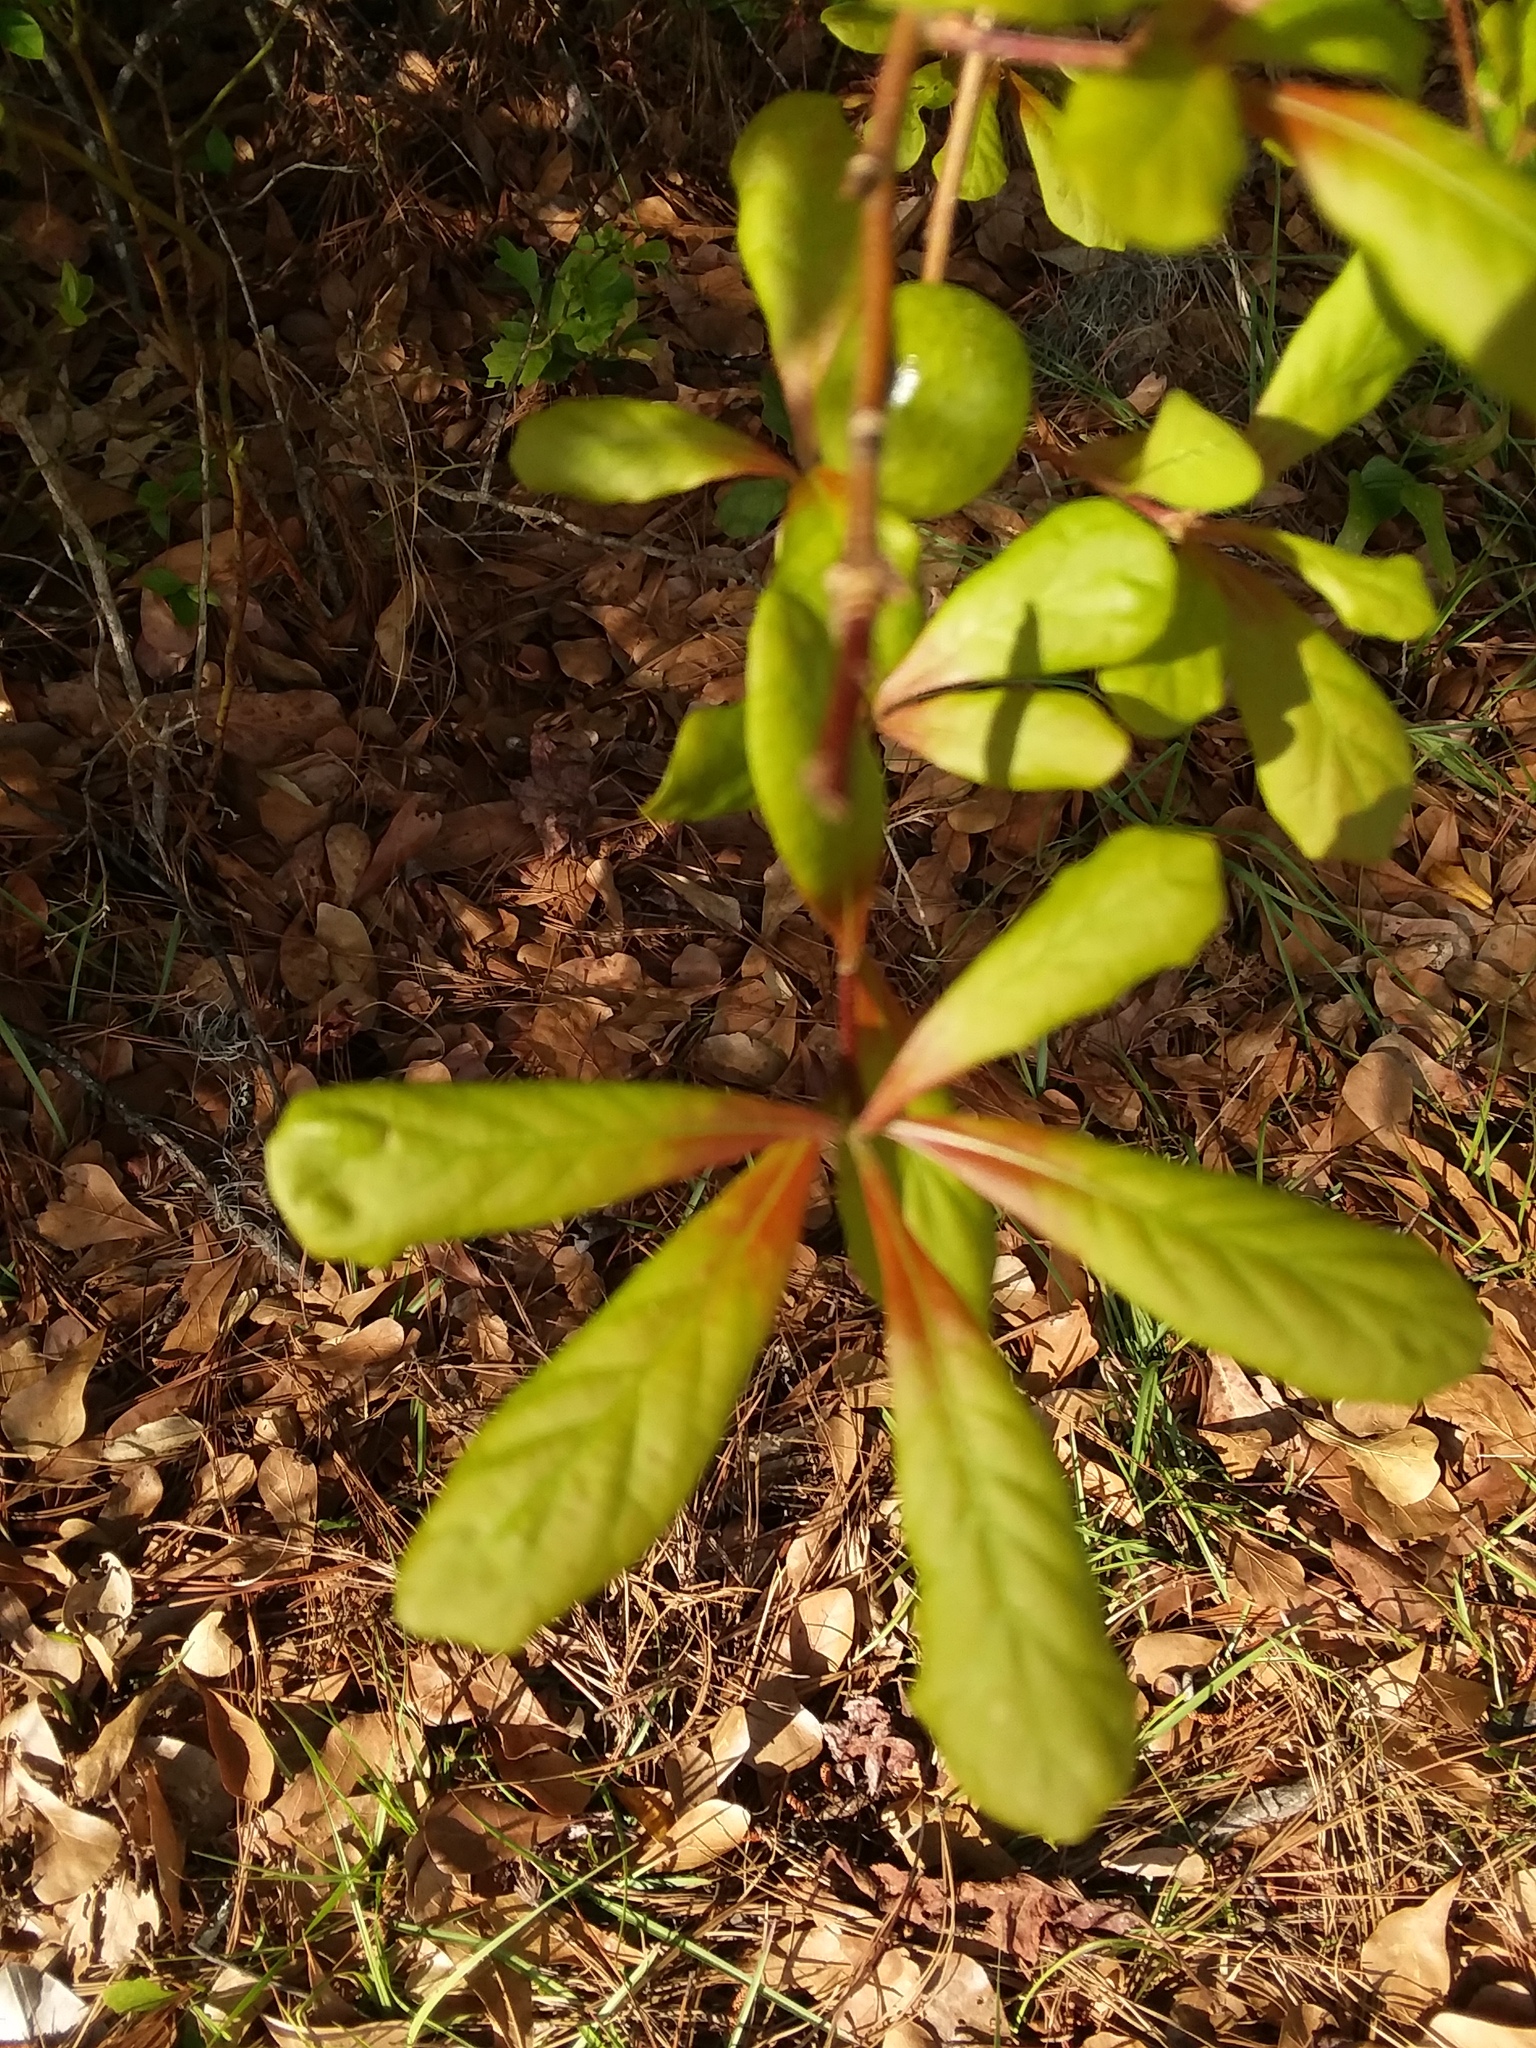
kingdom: Plantae
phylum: Tracheophyta
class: Magnoliopsida
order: Fagales
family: Fagaceae
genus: Quercus
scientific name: Quercus nigra
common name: Water oak
